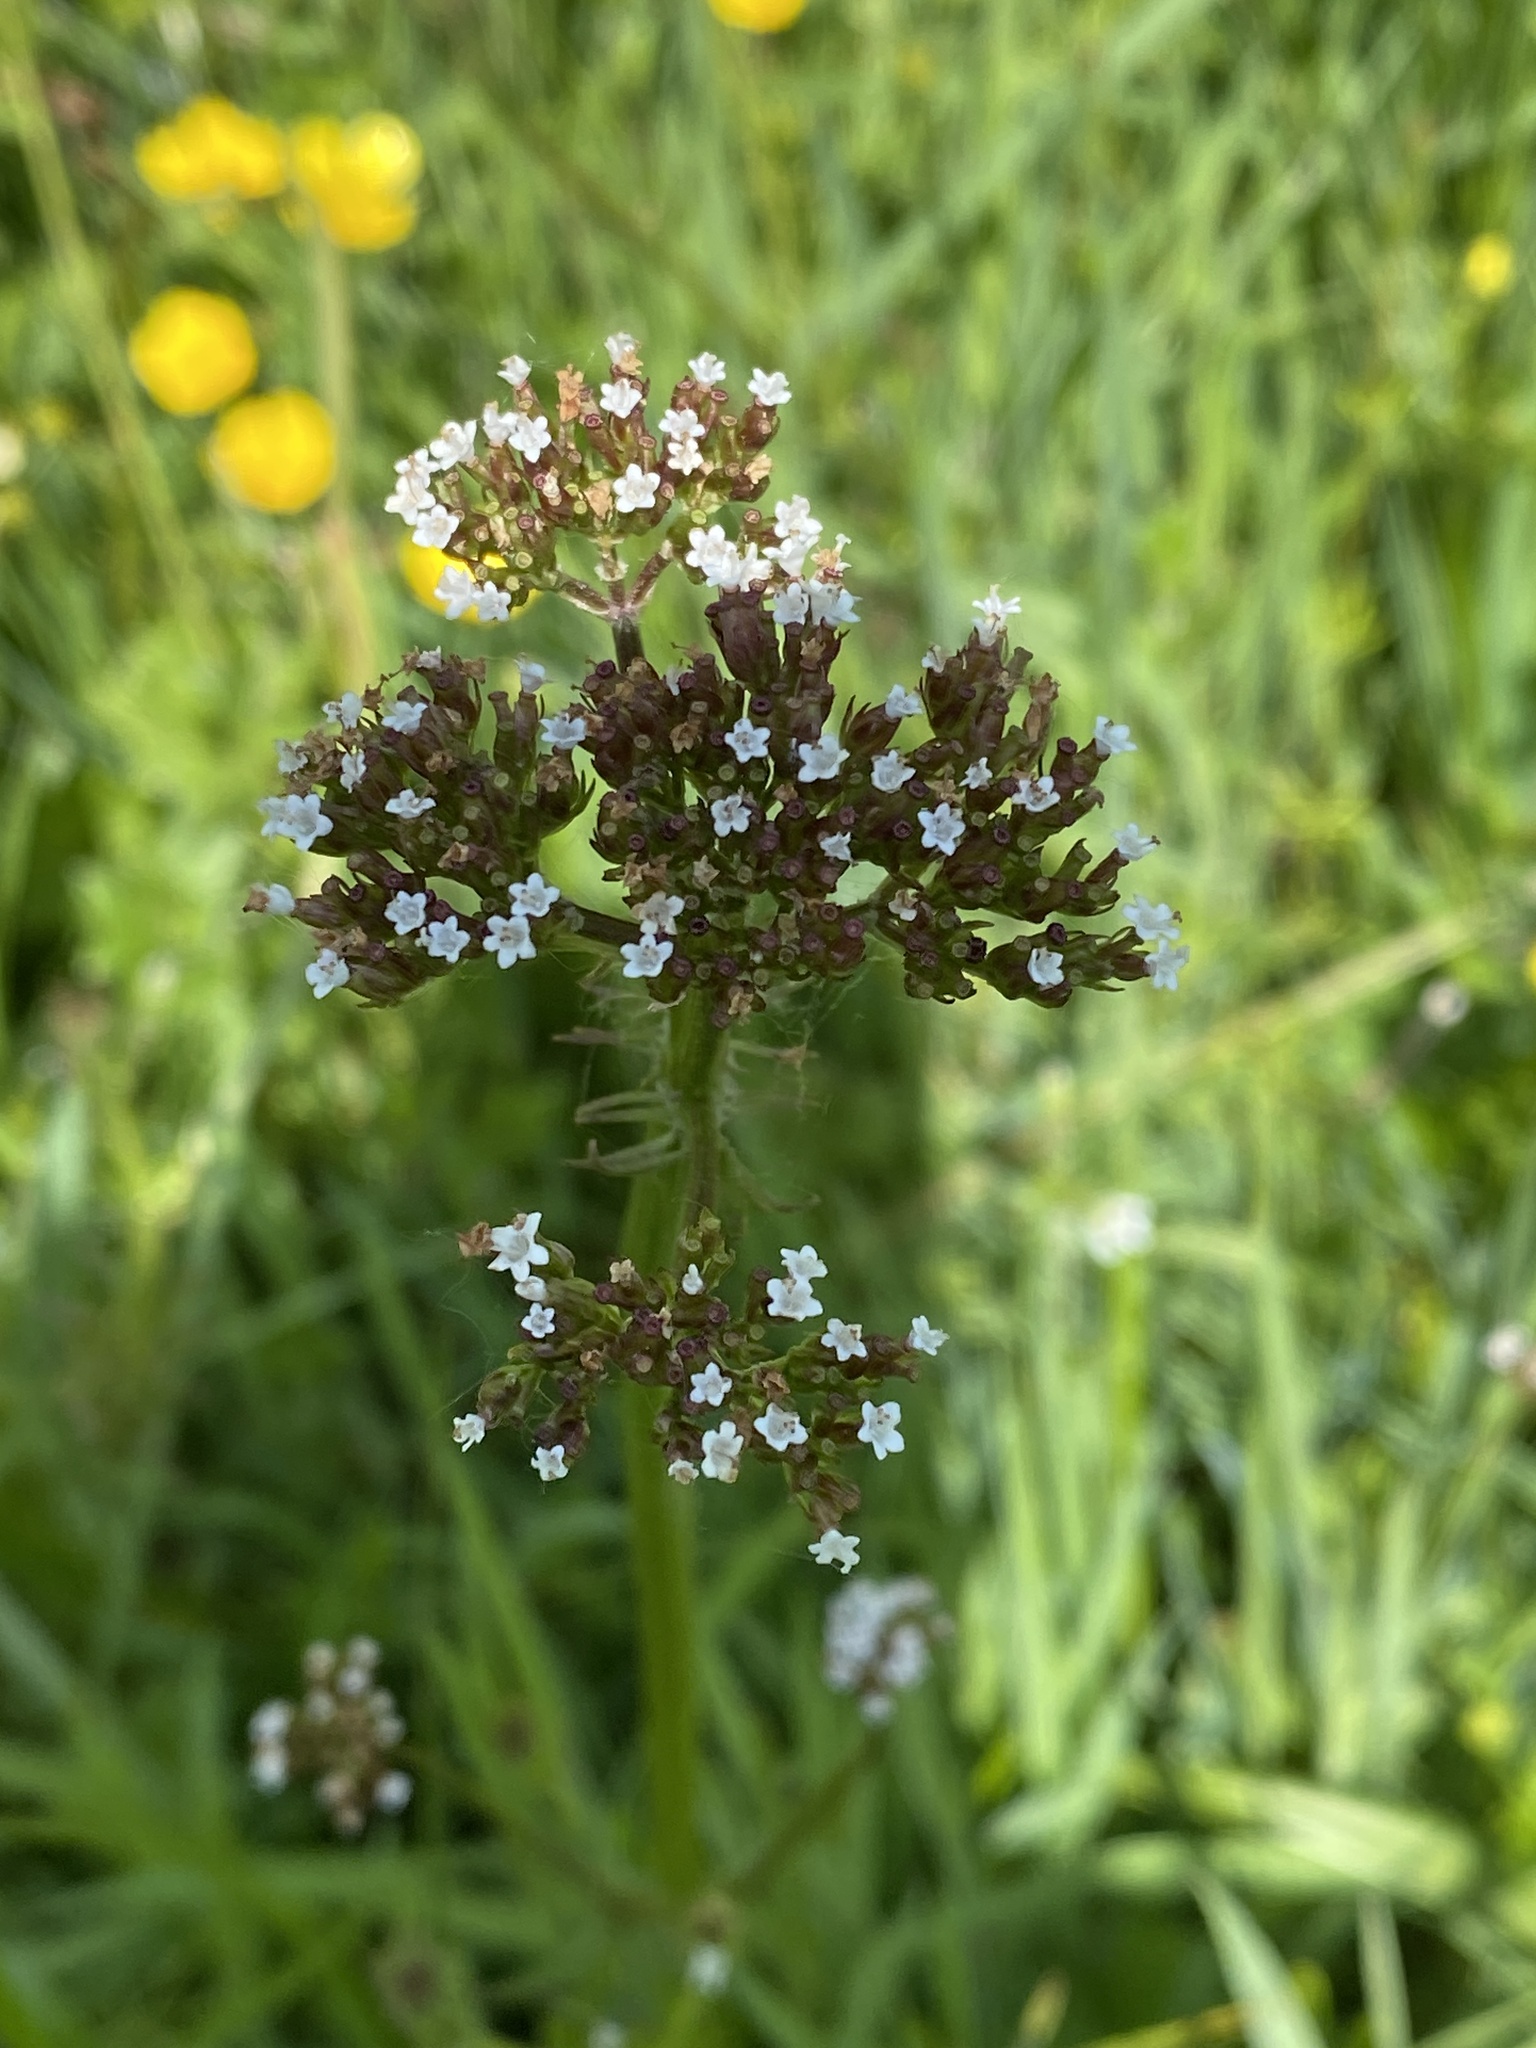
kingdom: Plantae
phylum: Tracheophyta
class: Magnoliopsida
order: Dipsacales
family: Caprifoliaceae
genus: Valeriana
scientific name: Valeriana dioica
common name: Marsh valerian
